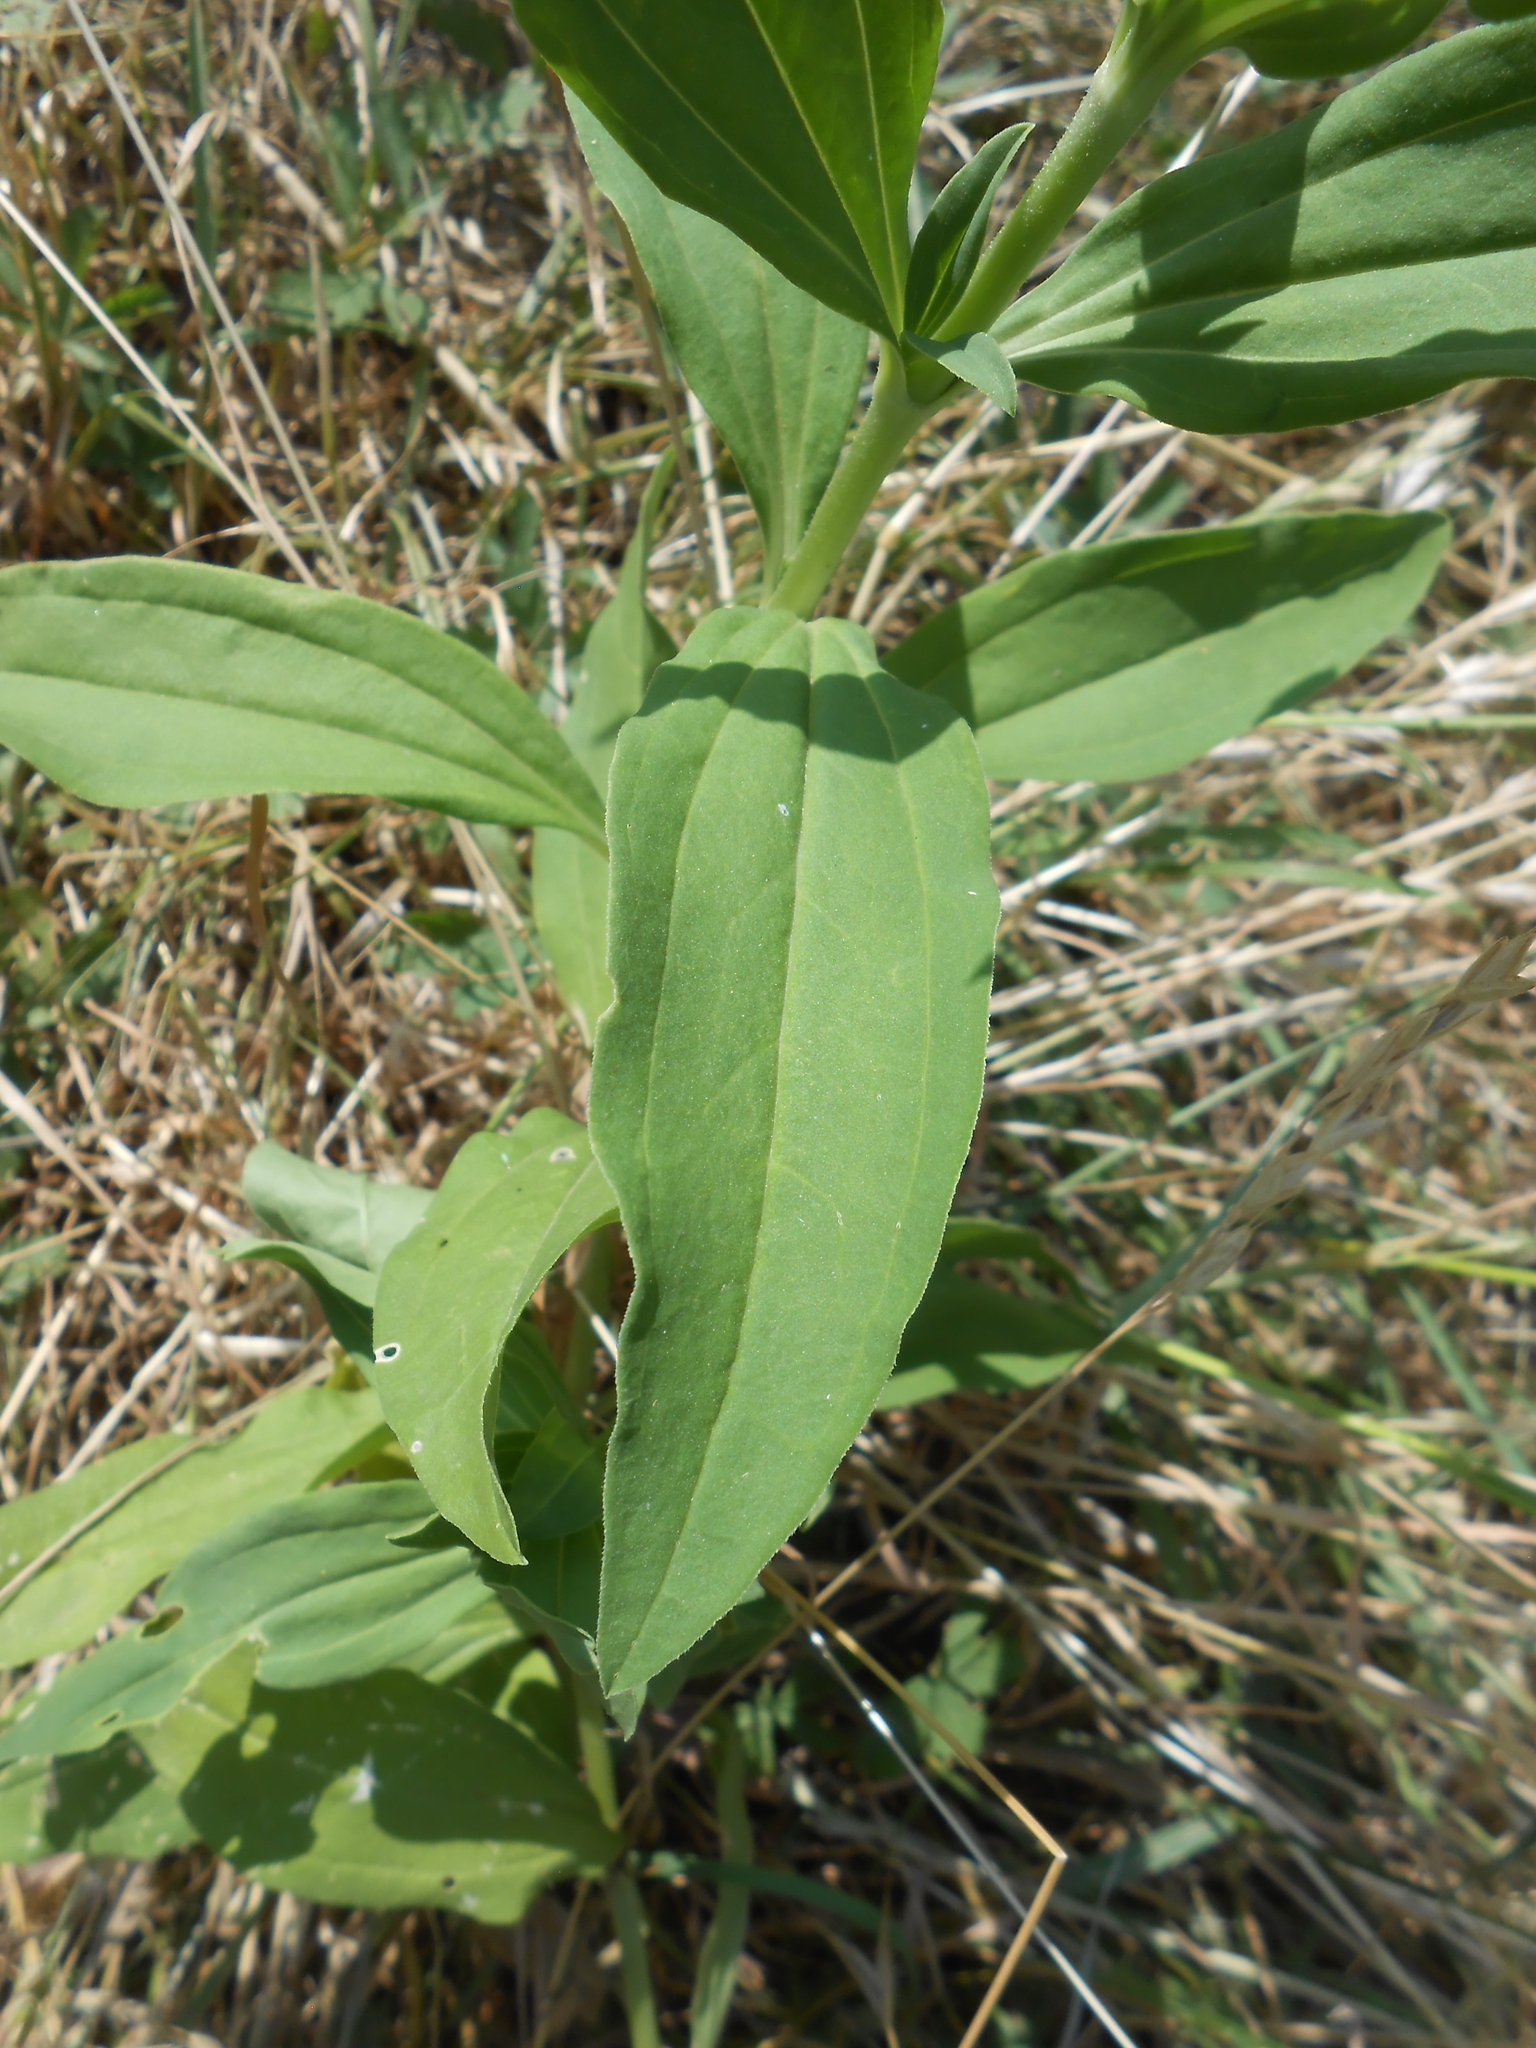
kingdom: Plantae
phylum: Tracheophyta
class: Magnoliopsida
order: Caryophyllales
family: Caryophyllaceae
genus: Saponaria
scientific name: Saponaria officinalis
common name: Soapwort
